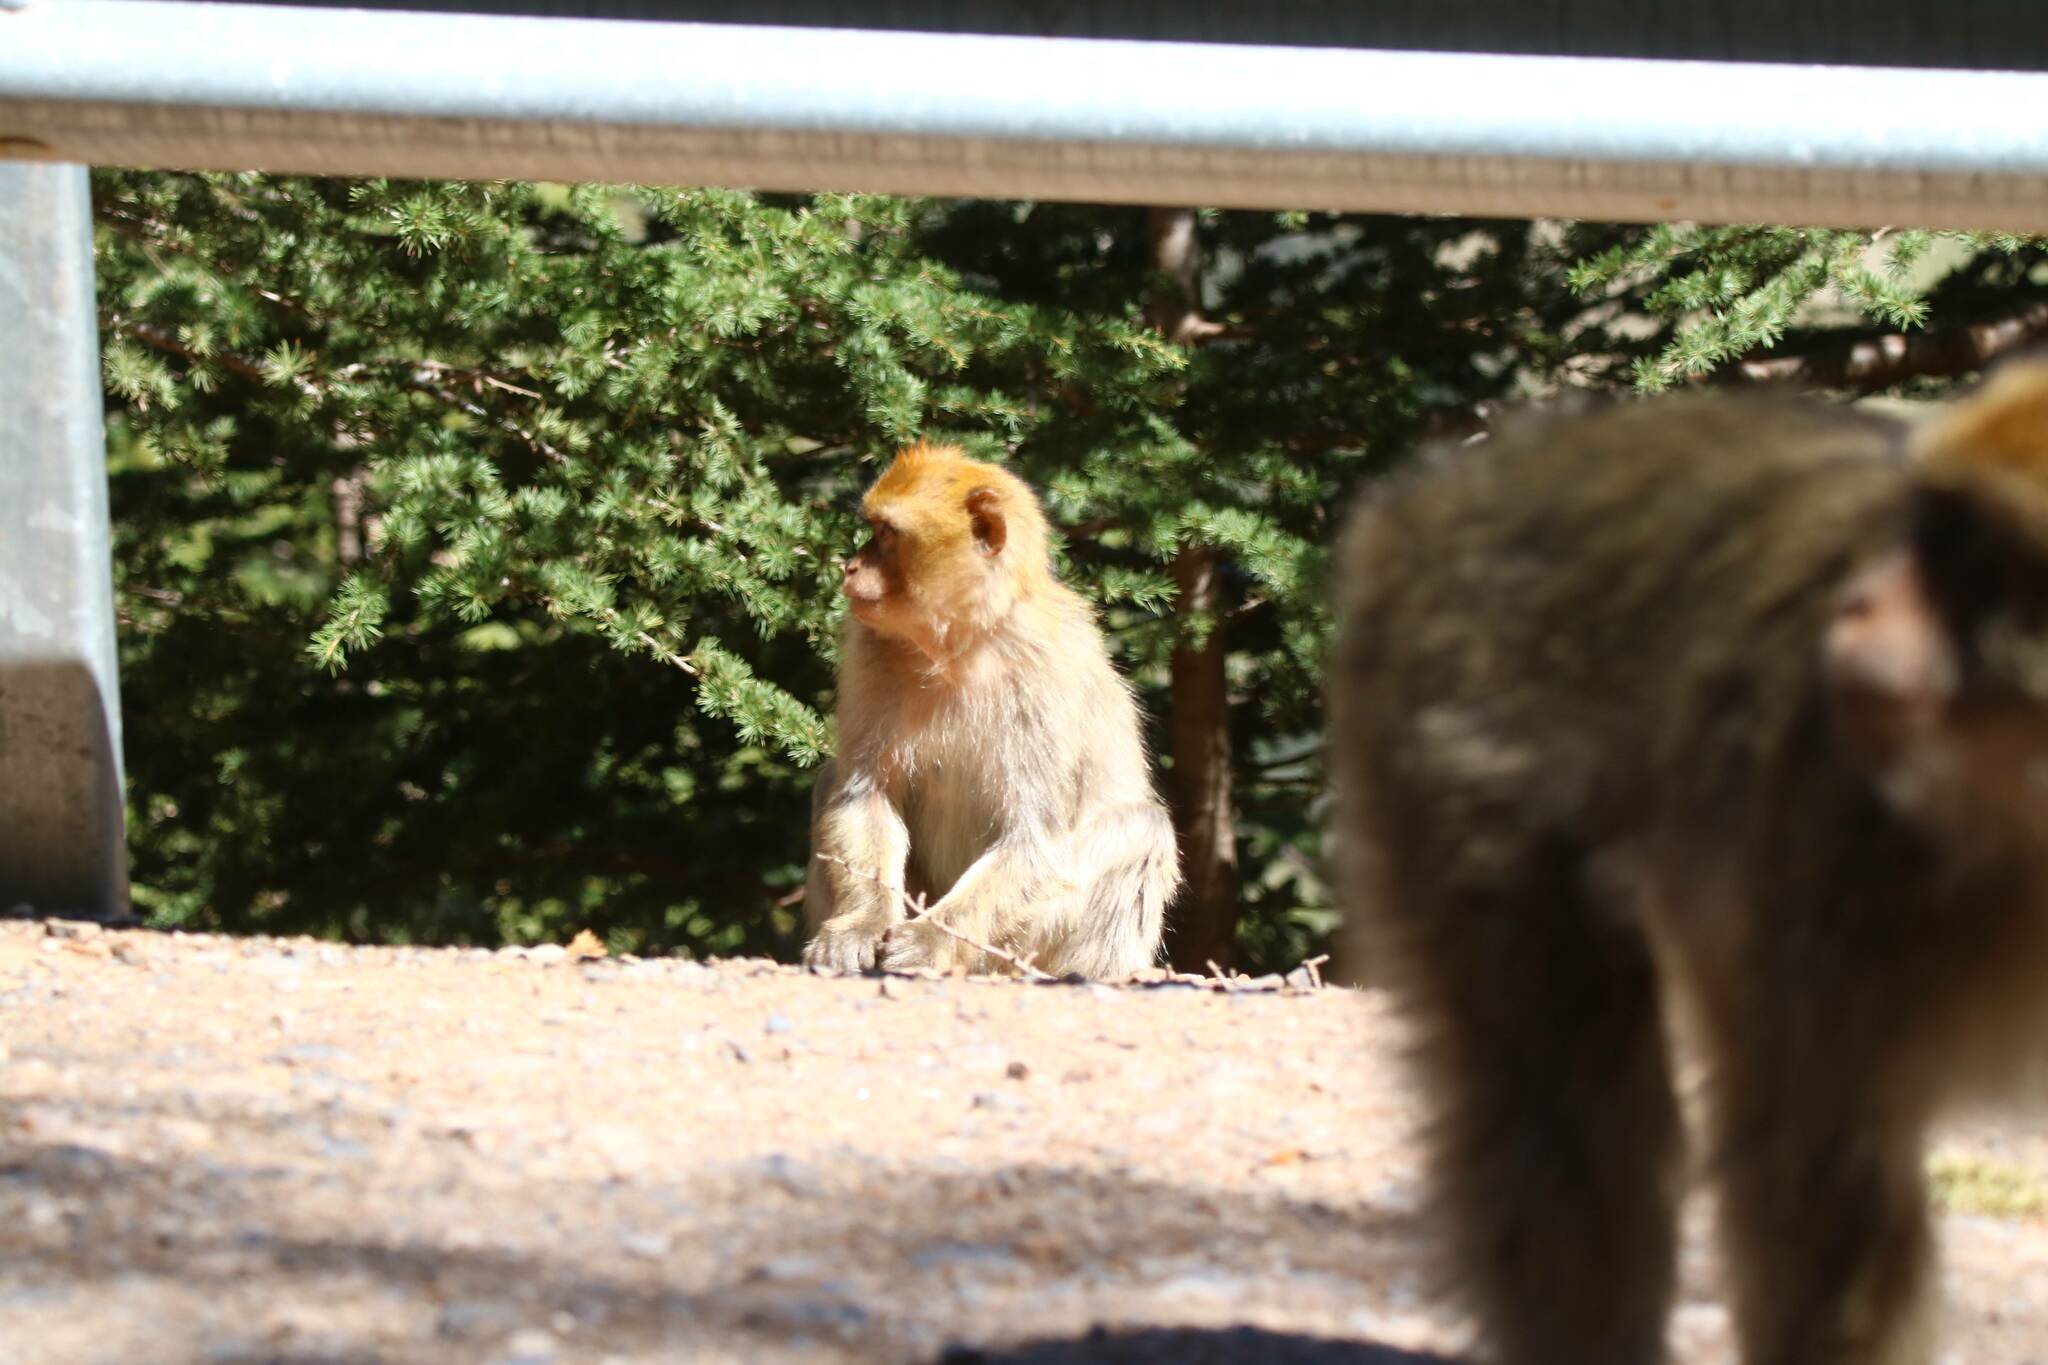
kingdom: Animalia
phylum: Chordata
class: Mammalia
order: Primates
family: Cercopithecidae
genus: Macaca
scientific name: Macaca sylvanus
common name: Barbary macaque
